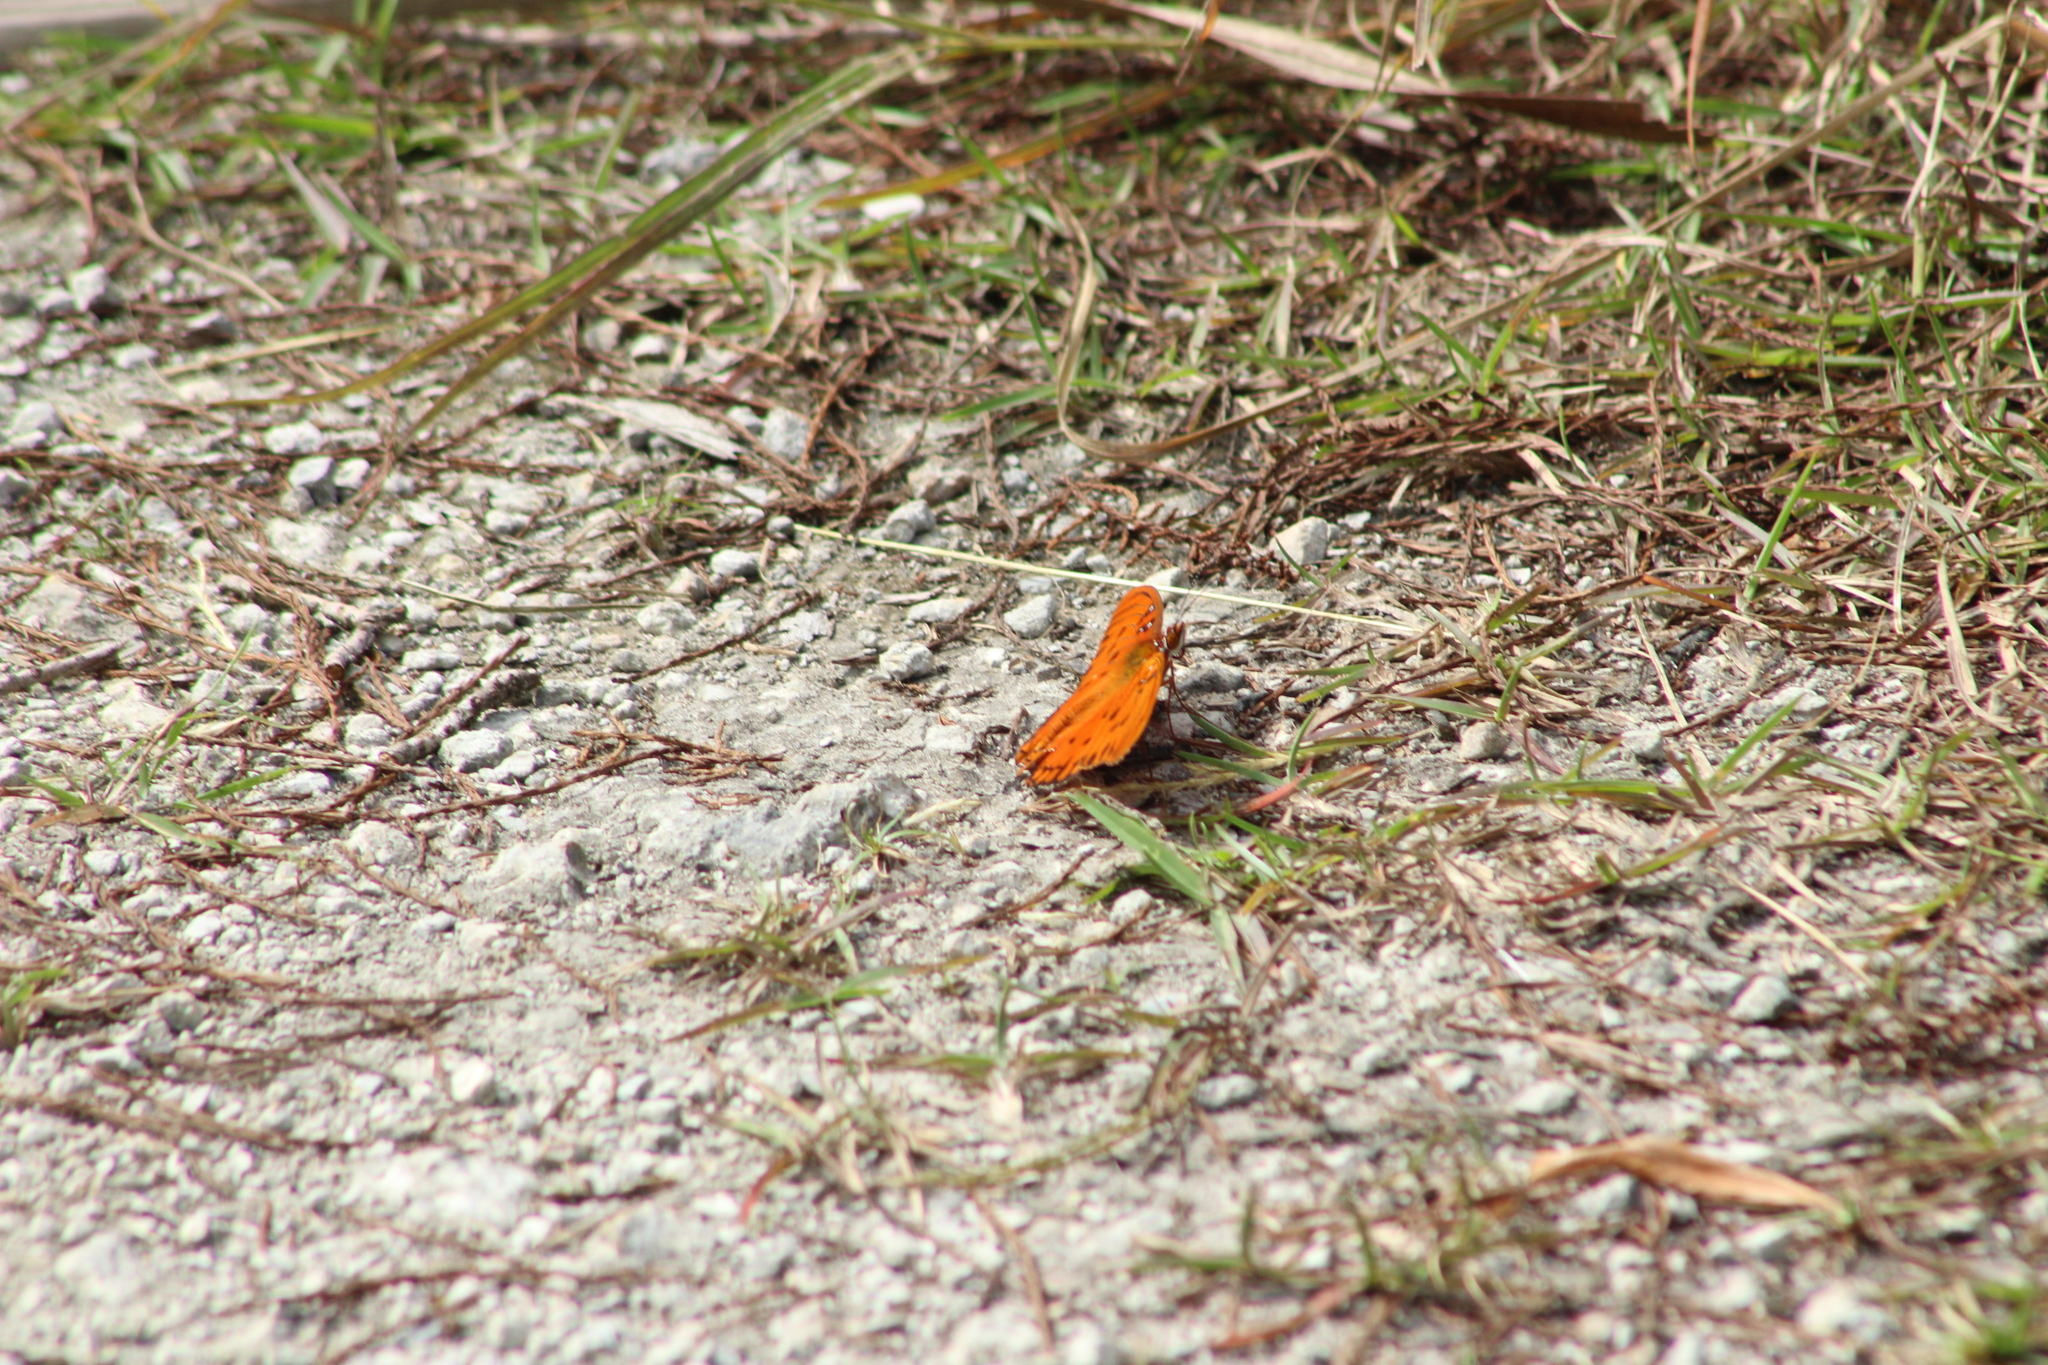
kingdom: Animalia
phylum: Arthropoda
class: Insecta
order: Lepidoptera
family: Nymphalidae
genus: Dione
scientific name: Dione vanillae
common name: Gulf fritillary
